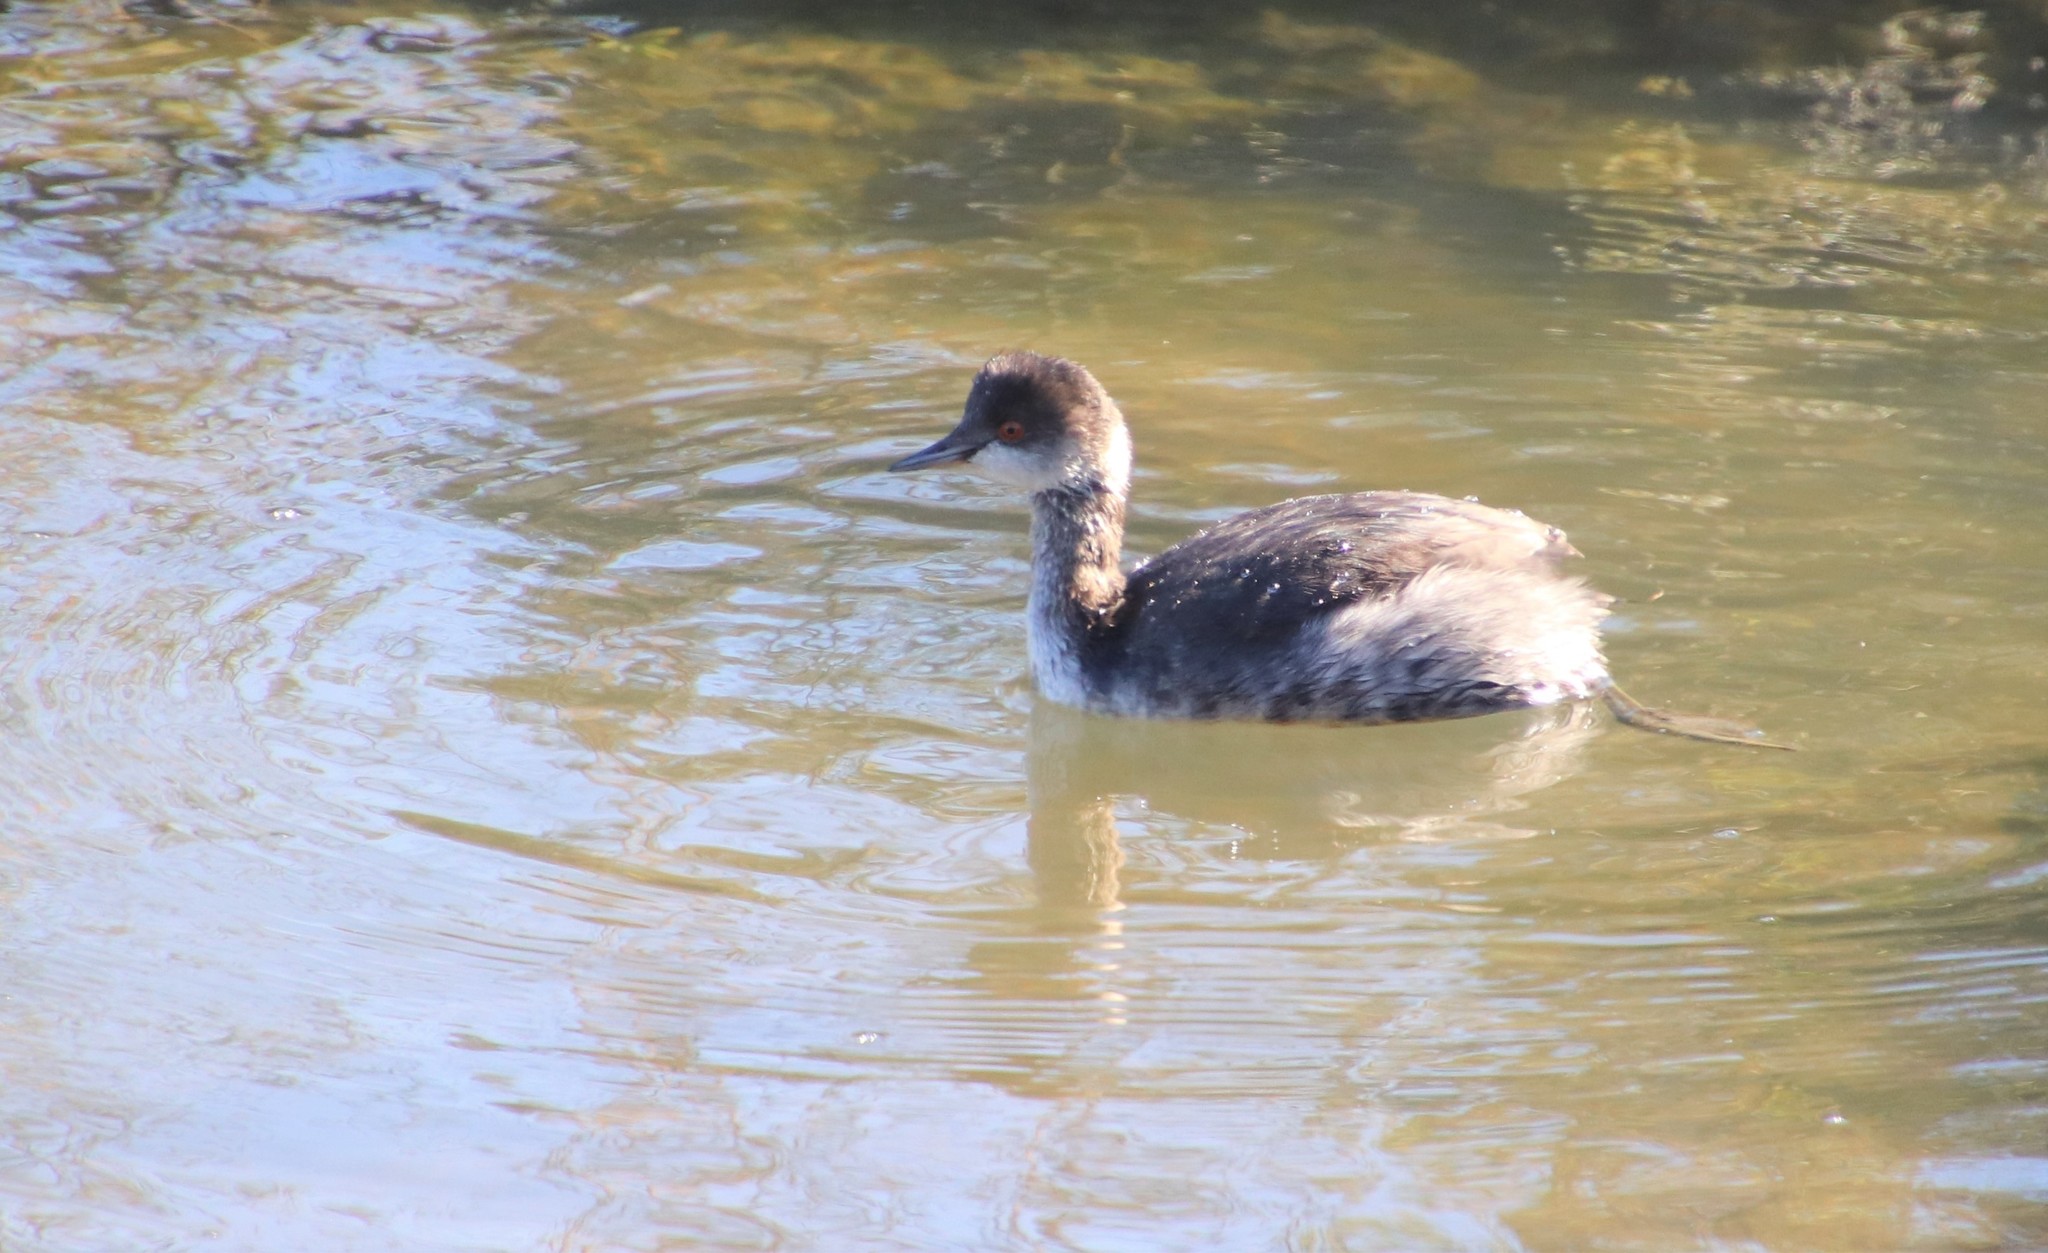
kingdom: Animalia
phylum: Chordata
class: Aves
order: Podicipediformes
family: Podicipedidae
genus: Podiceps
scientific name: Podiceps nigricollis
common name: Black-necked grebe
